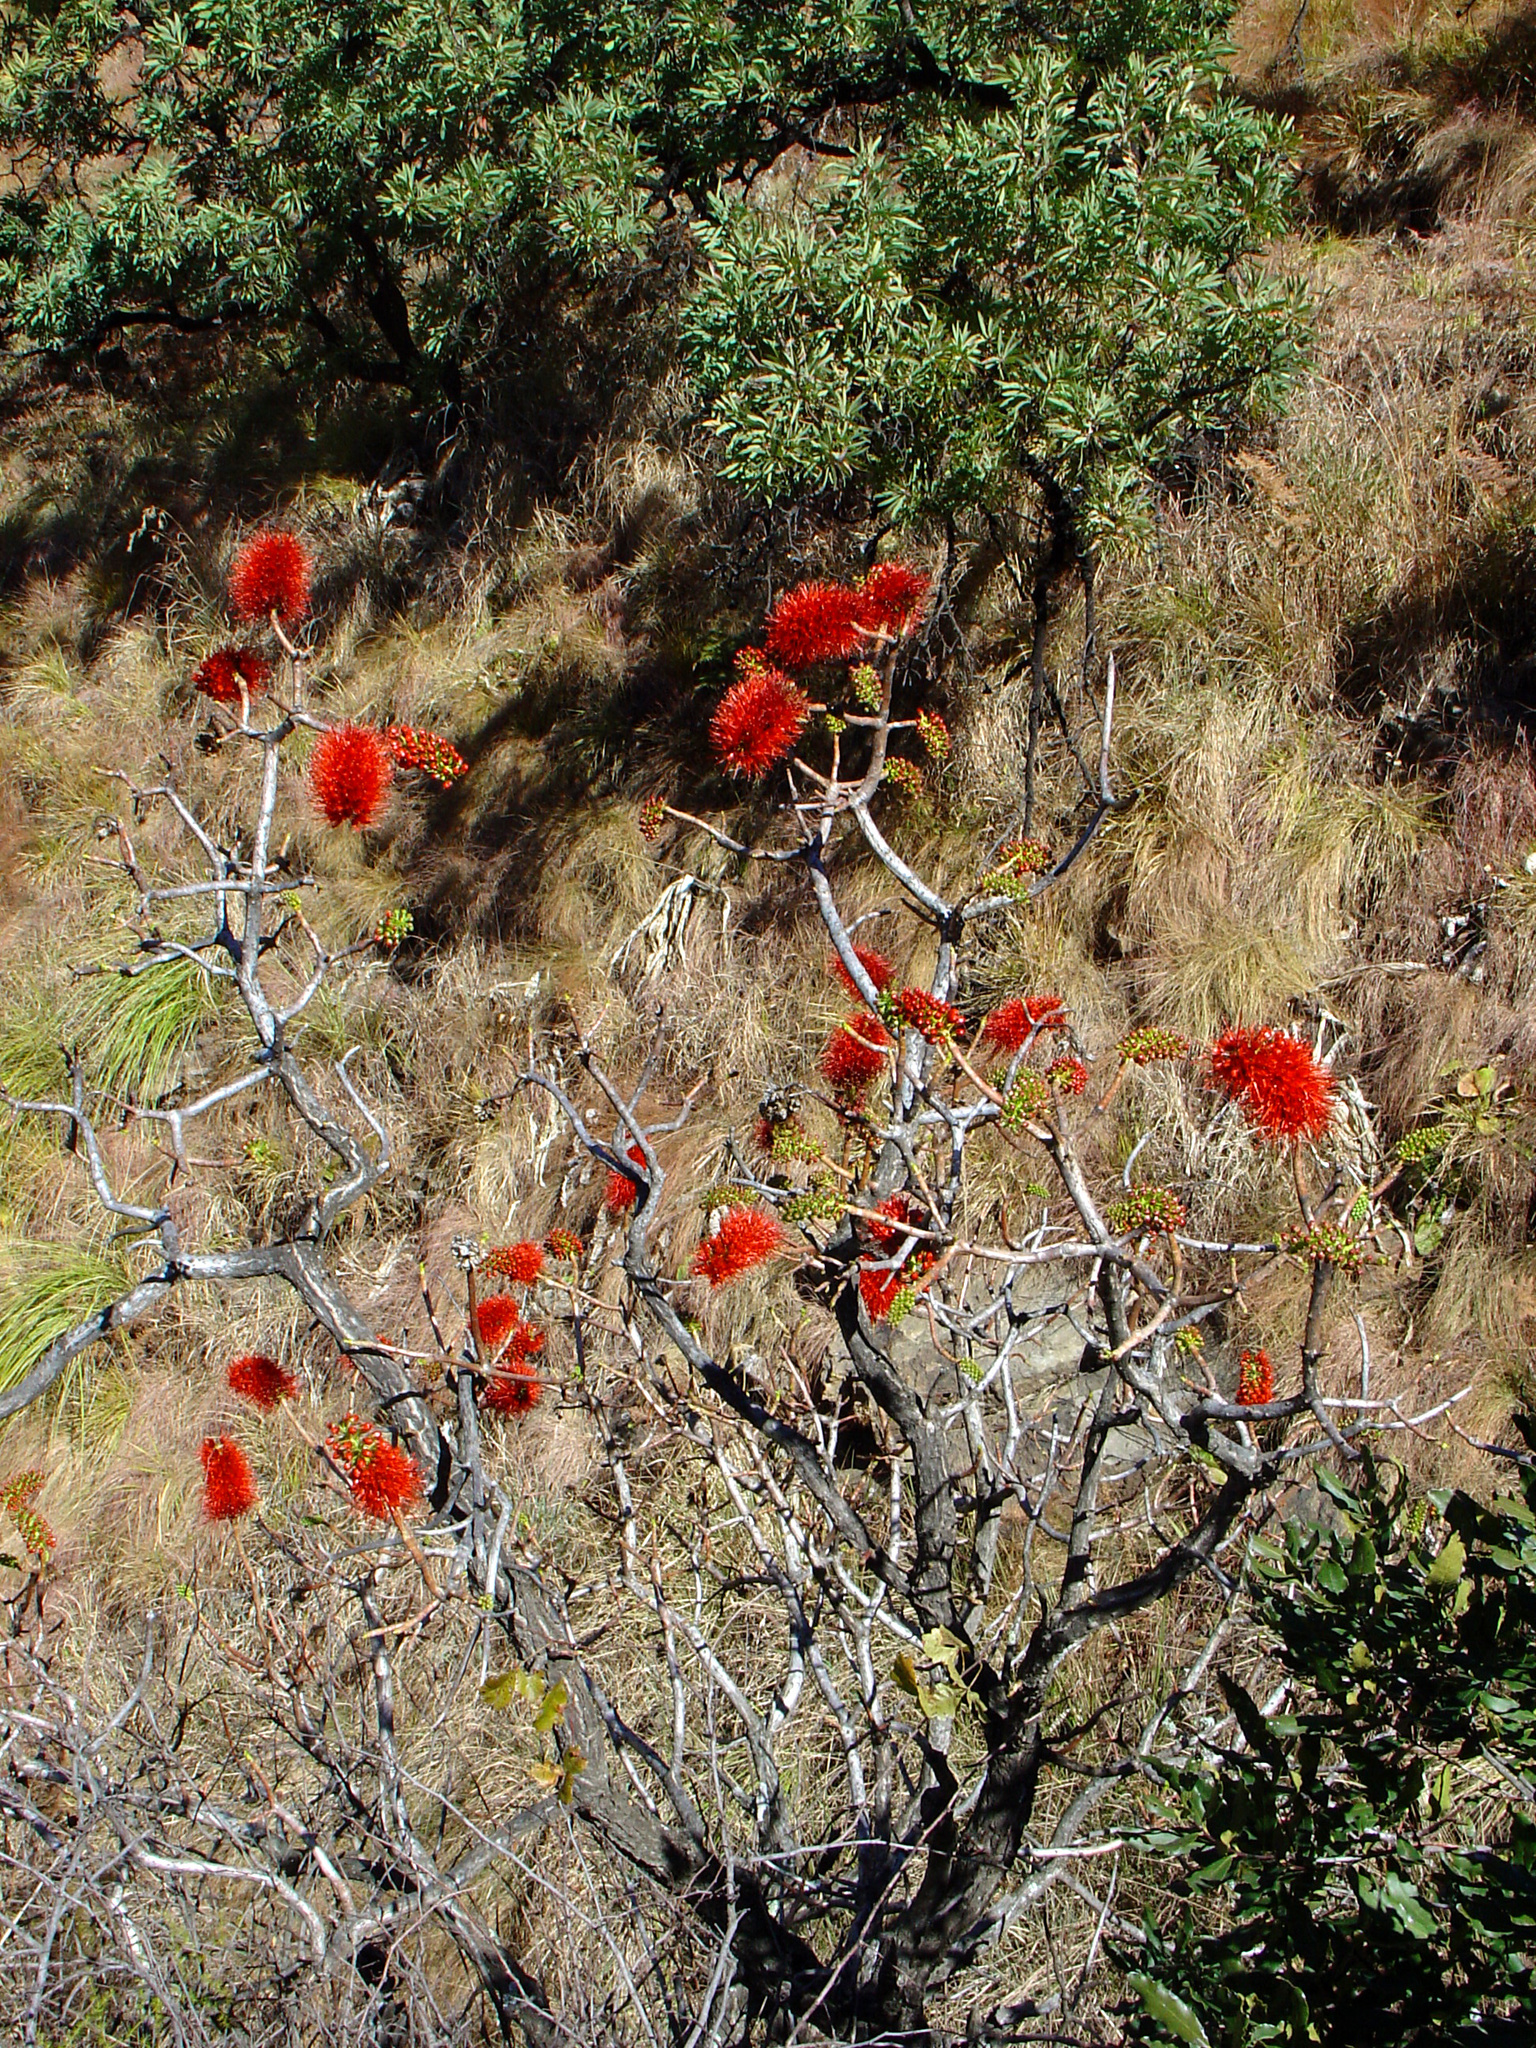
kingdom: Plantae
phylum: Tracheophyta
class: Magnoliopsida
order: Geraniales
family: Francoaceae
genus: Greyia
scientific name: Greyia sutherlandii
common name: Glossy bottlebrush
